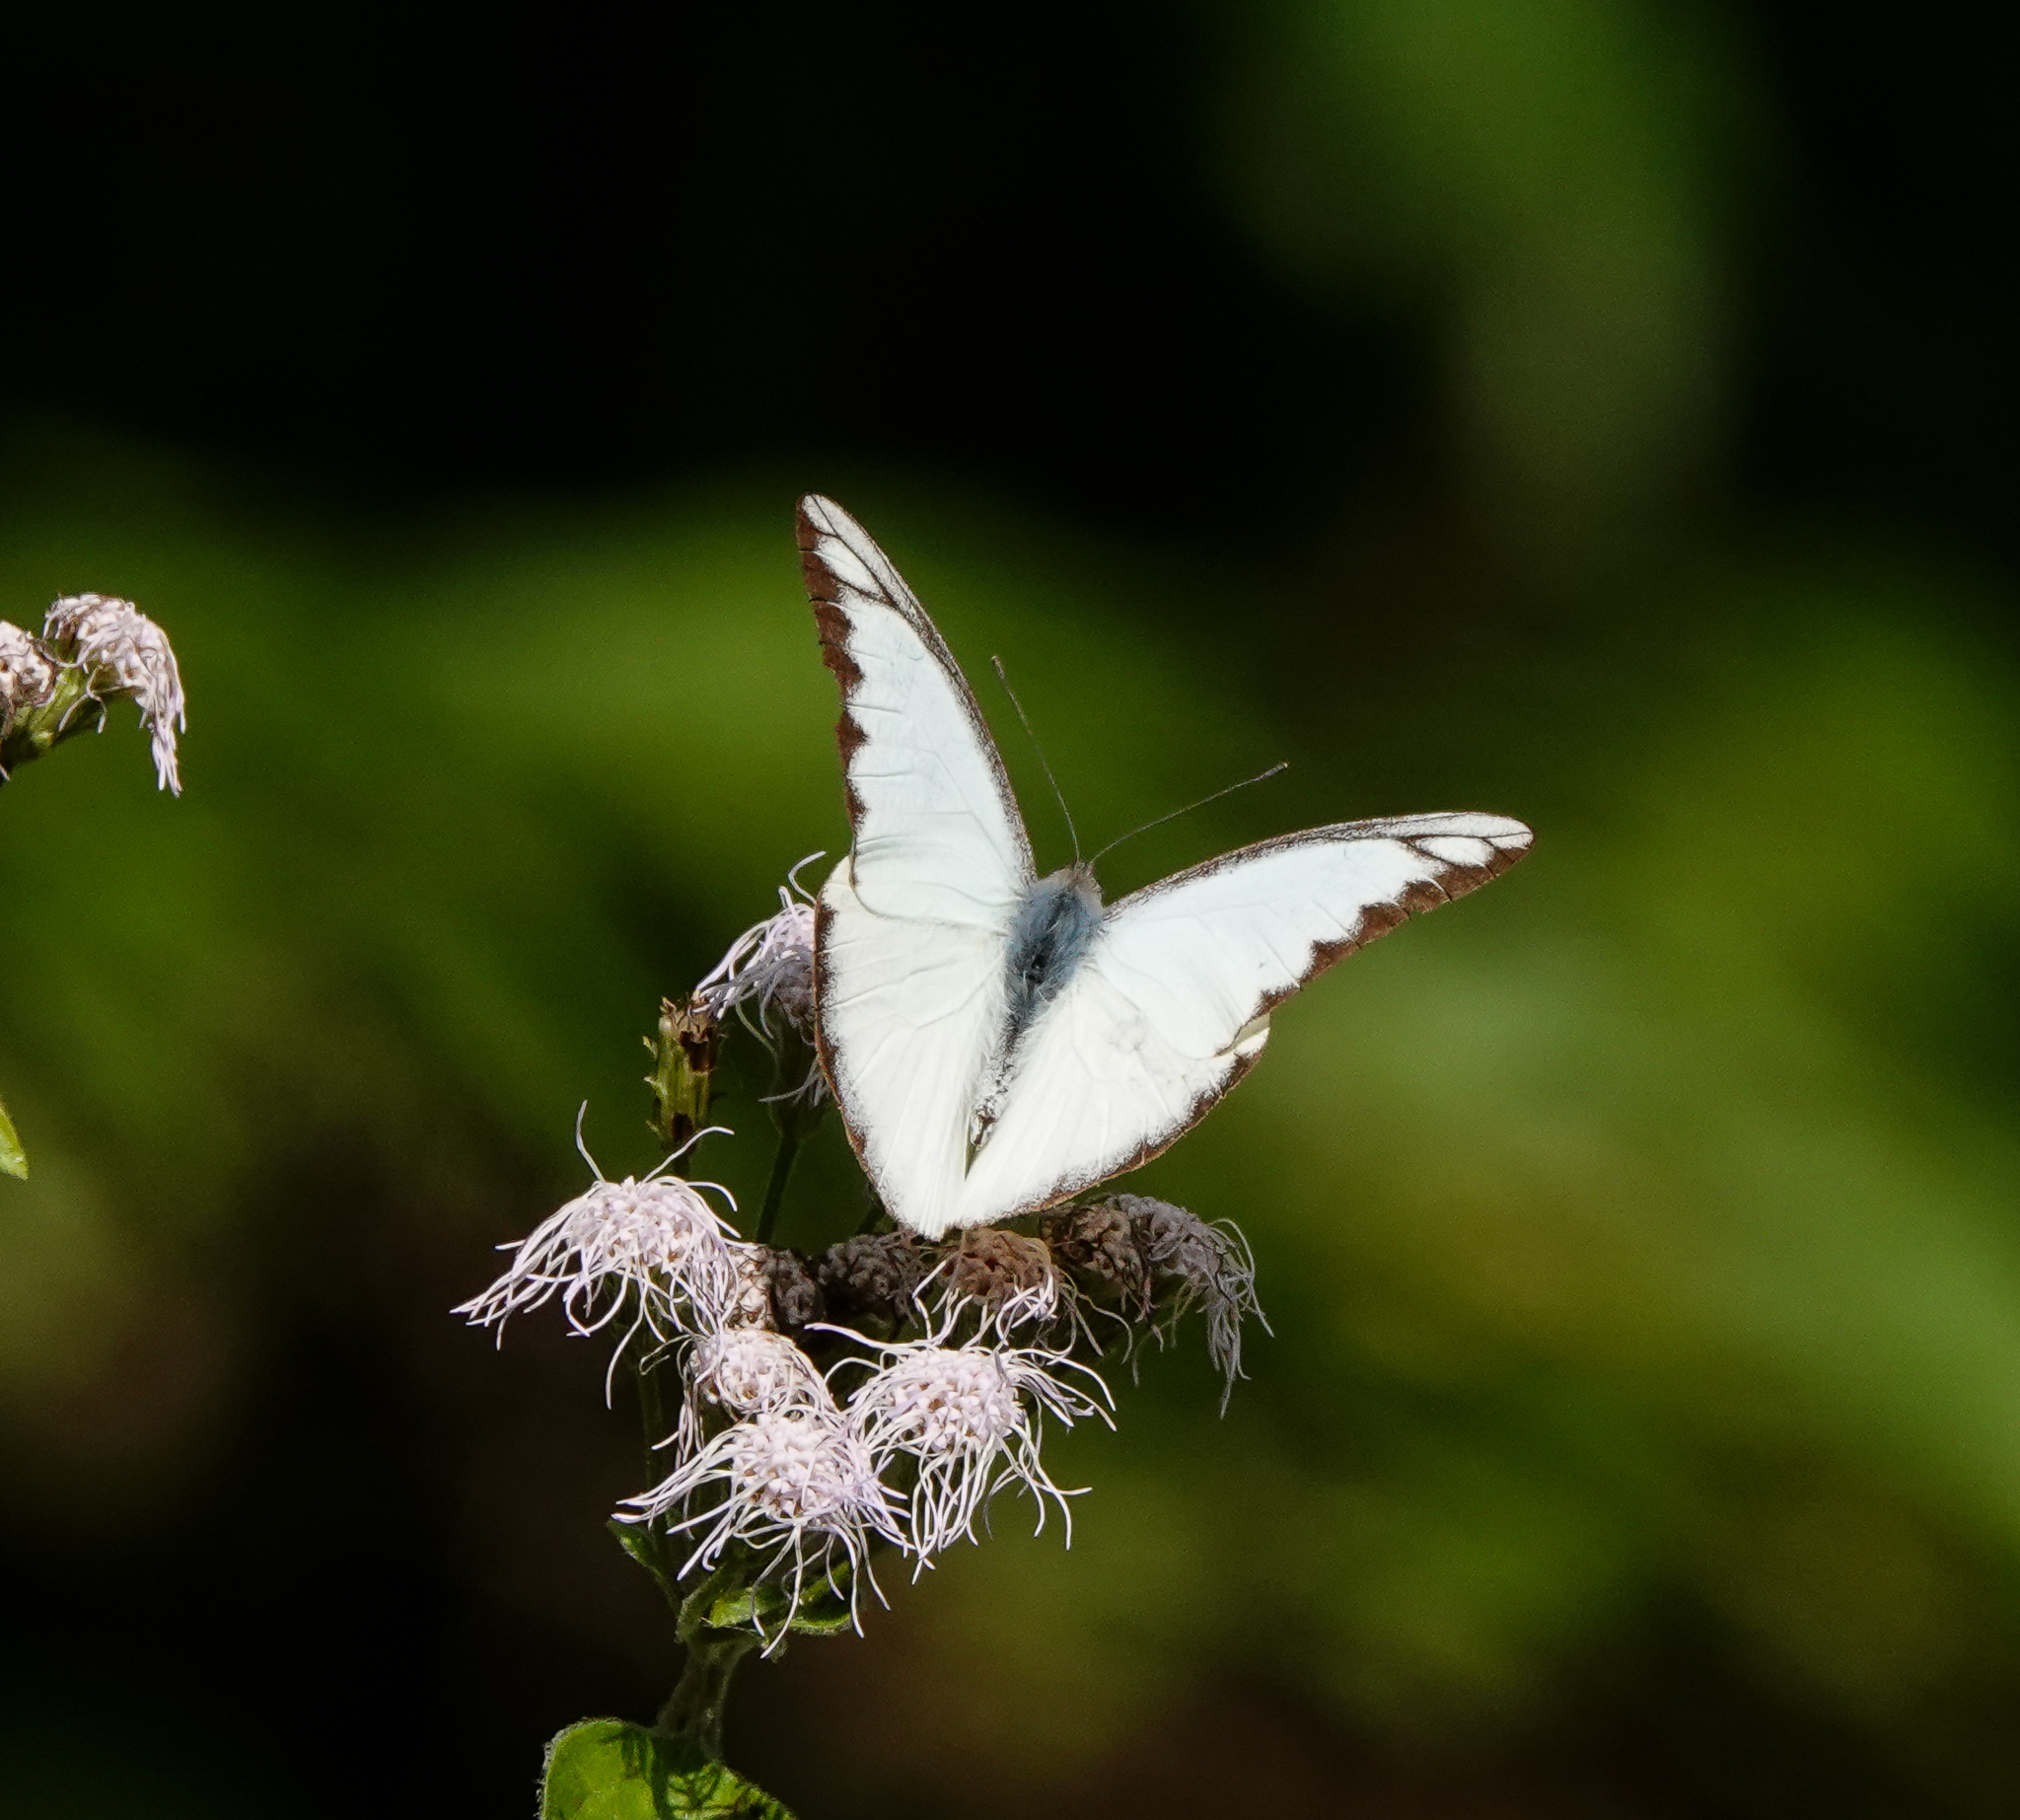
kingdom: Animalia
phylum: Arthropoda
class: Insecta
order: Lepidoptera
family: Pieridae
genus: Appias
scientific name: Appias lyncida
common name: Chocolate albatross
